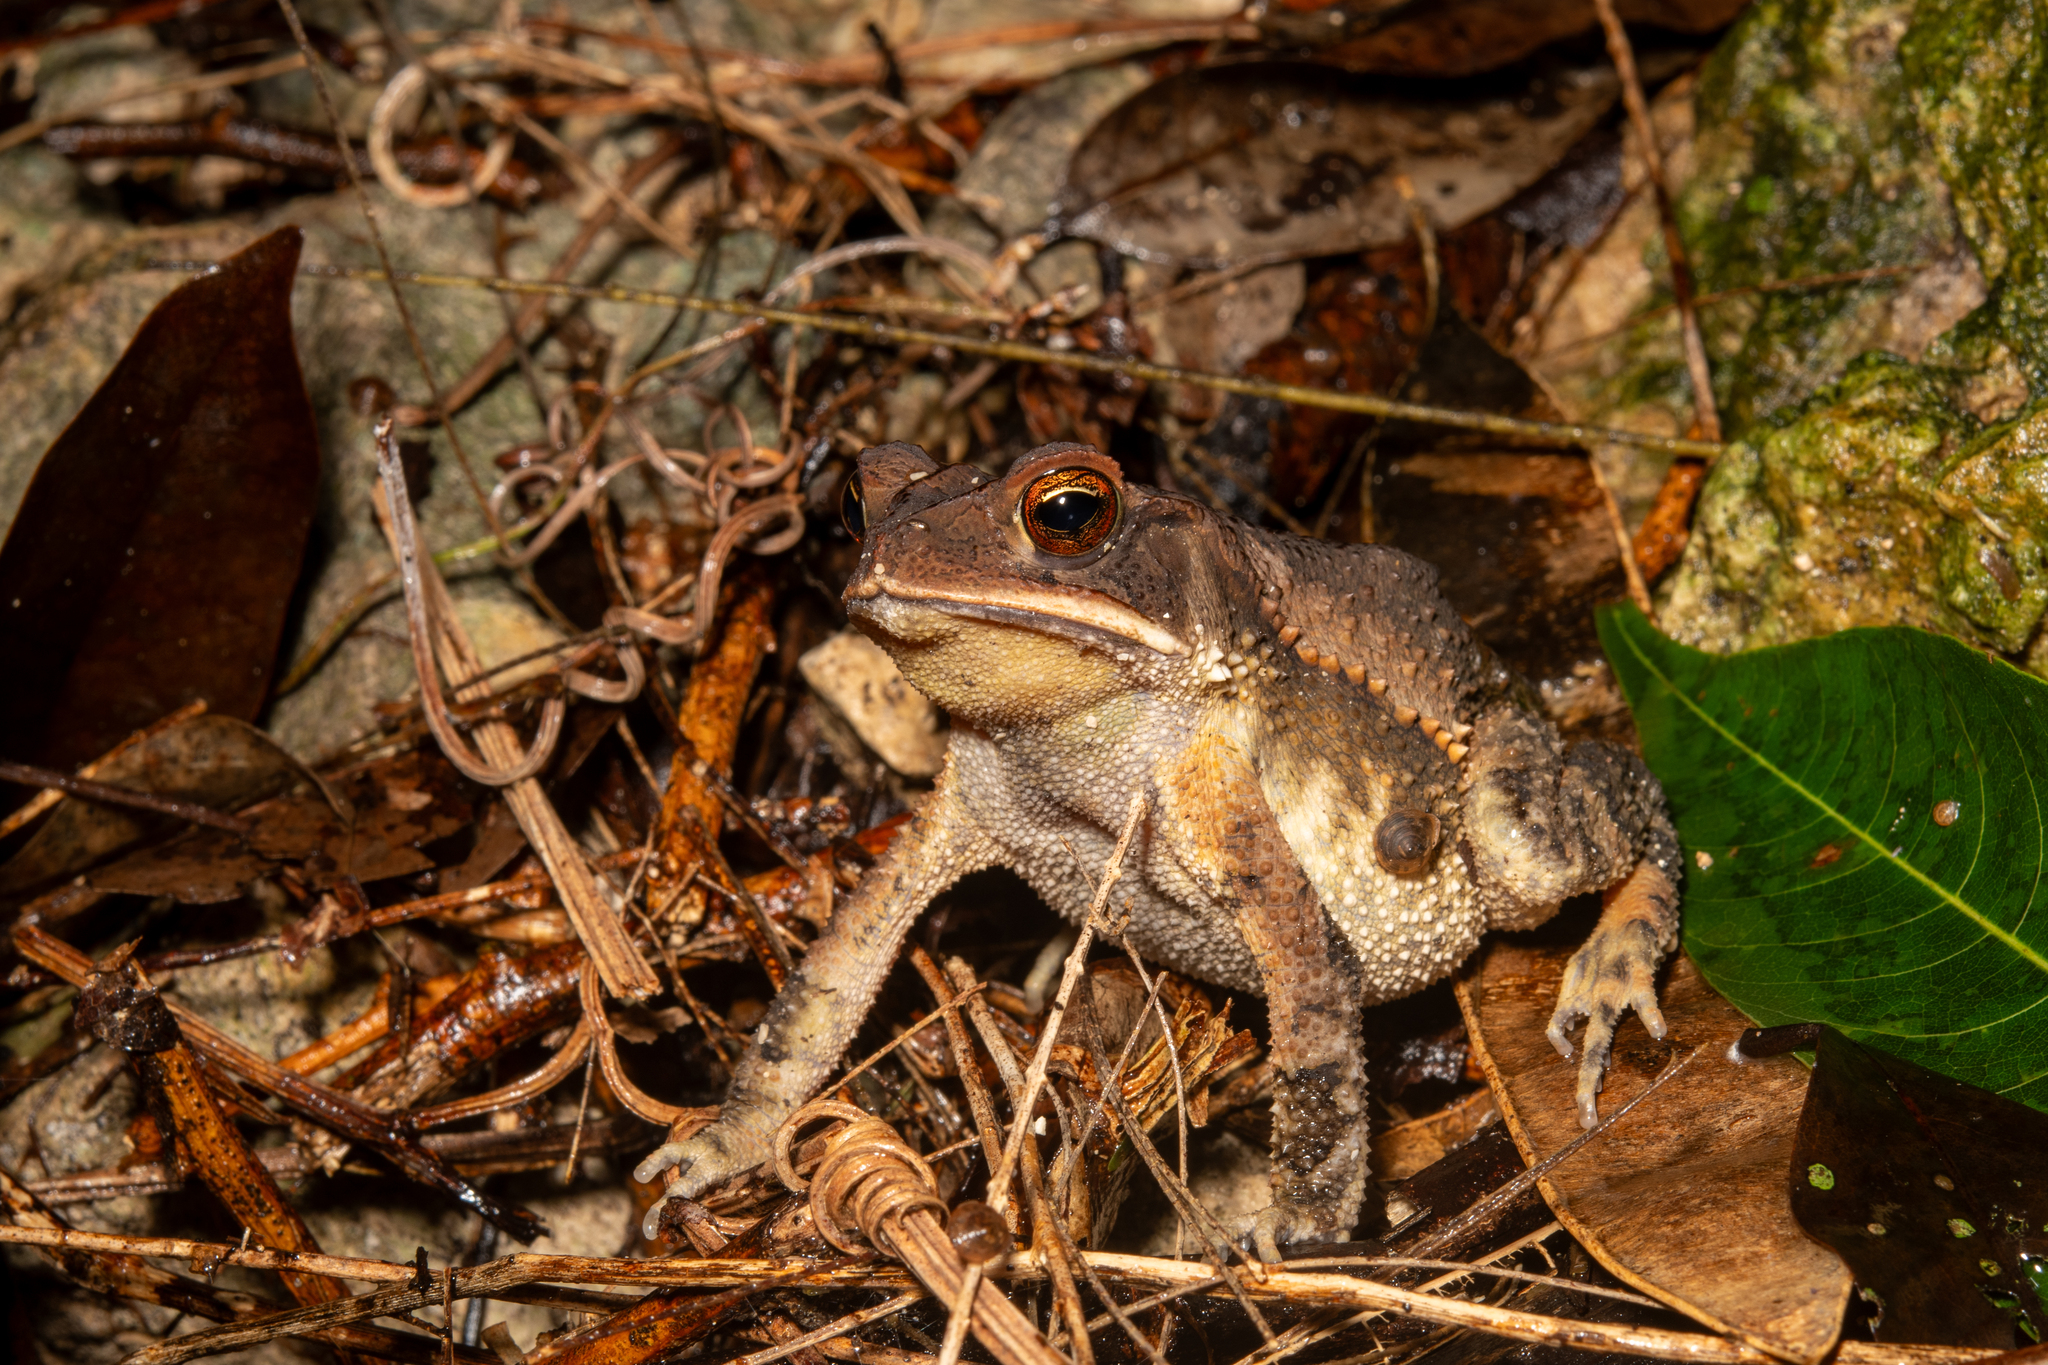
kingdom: Animalia
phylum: Chordata
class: Amphibia
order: Anura
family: Bufonidae
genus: Rhinella
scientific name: Rhinella horribilis
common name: Mesoamerican cane toad
